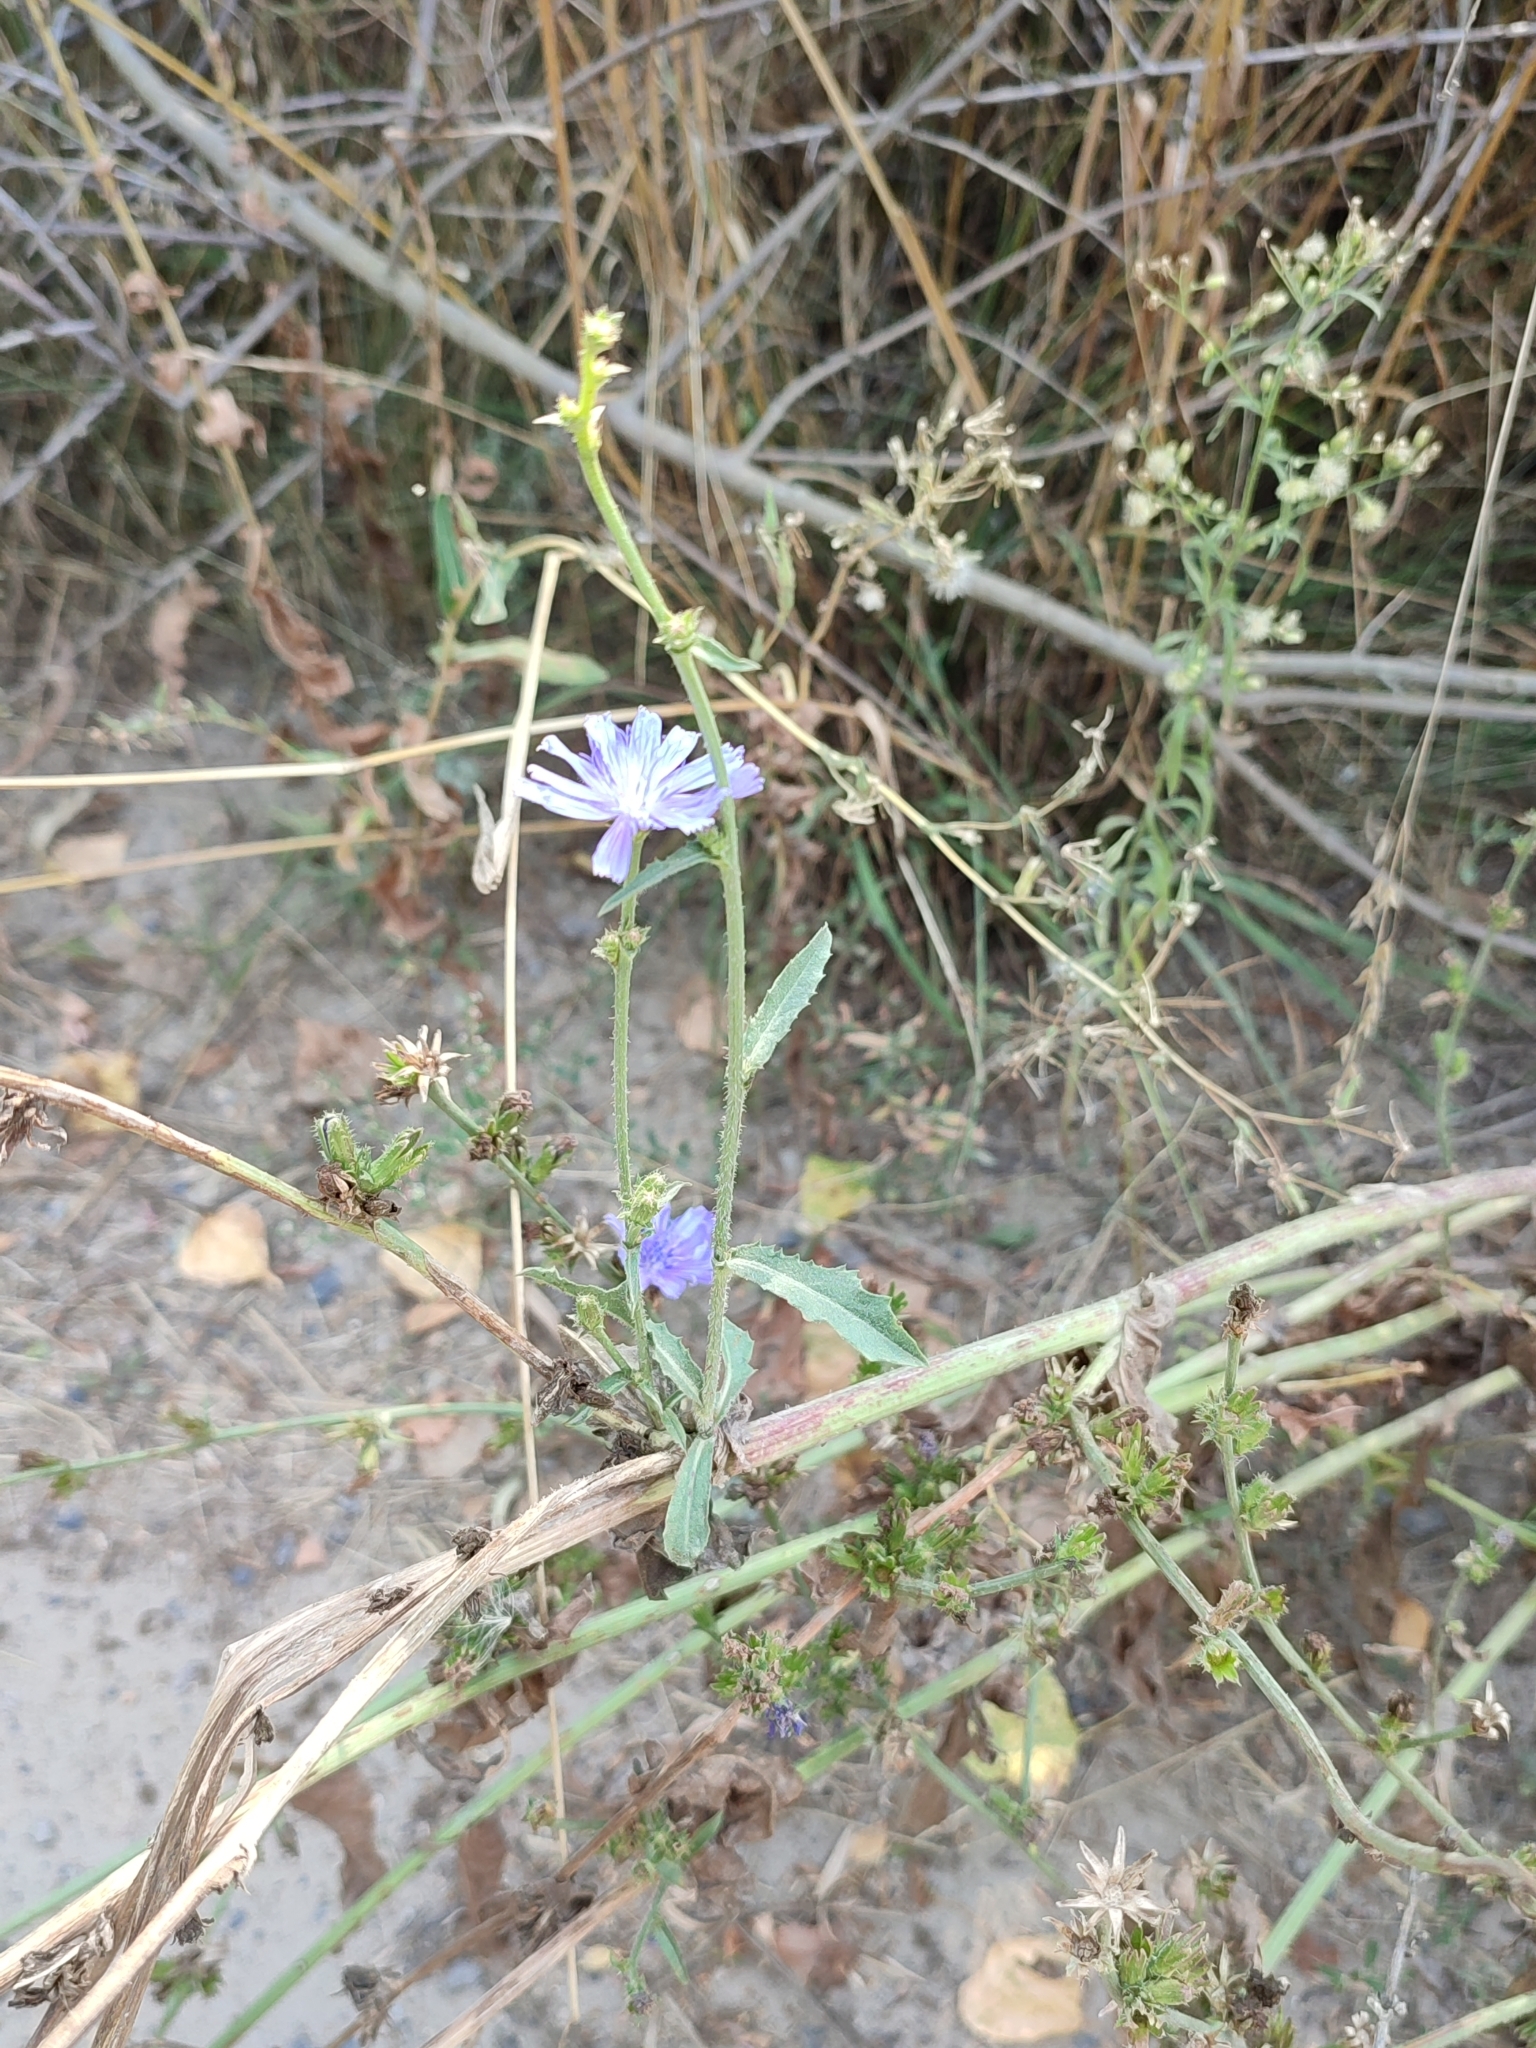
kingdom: Plantae
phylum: Tracheophyta
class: Magnoliopsida
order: Asterales
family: Asteraceae
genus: Cichorium
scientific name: Cichorium intybus
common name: Chicory
